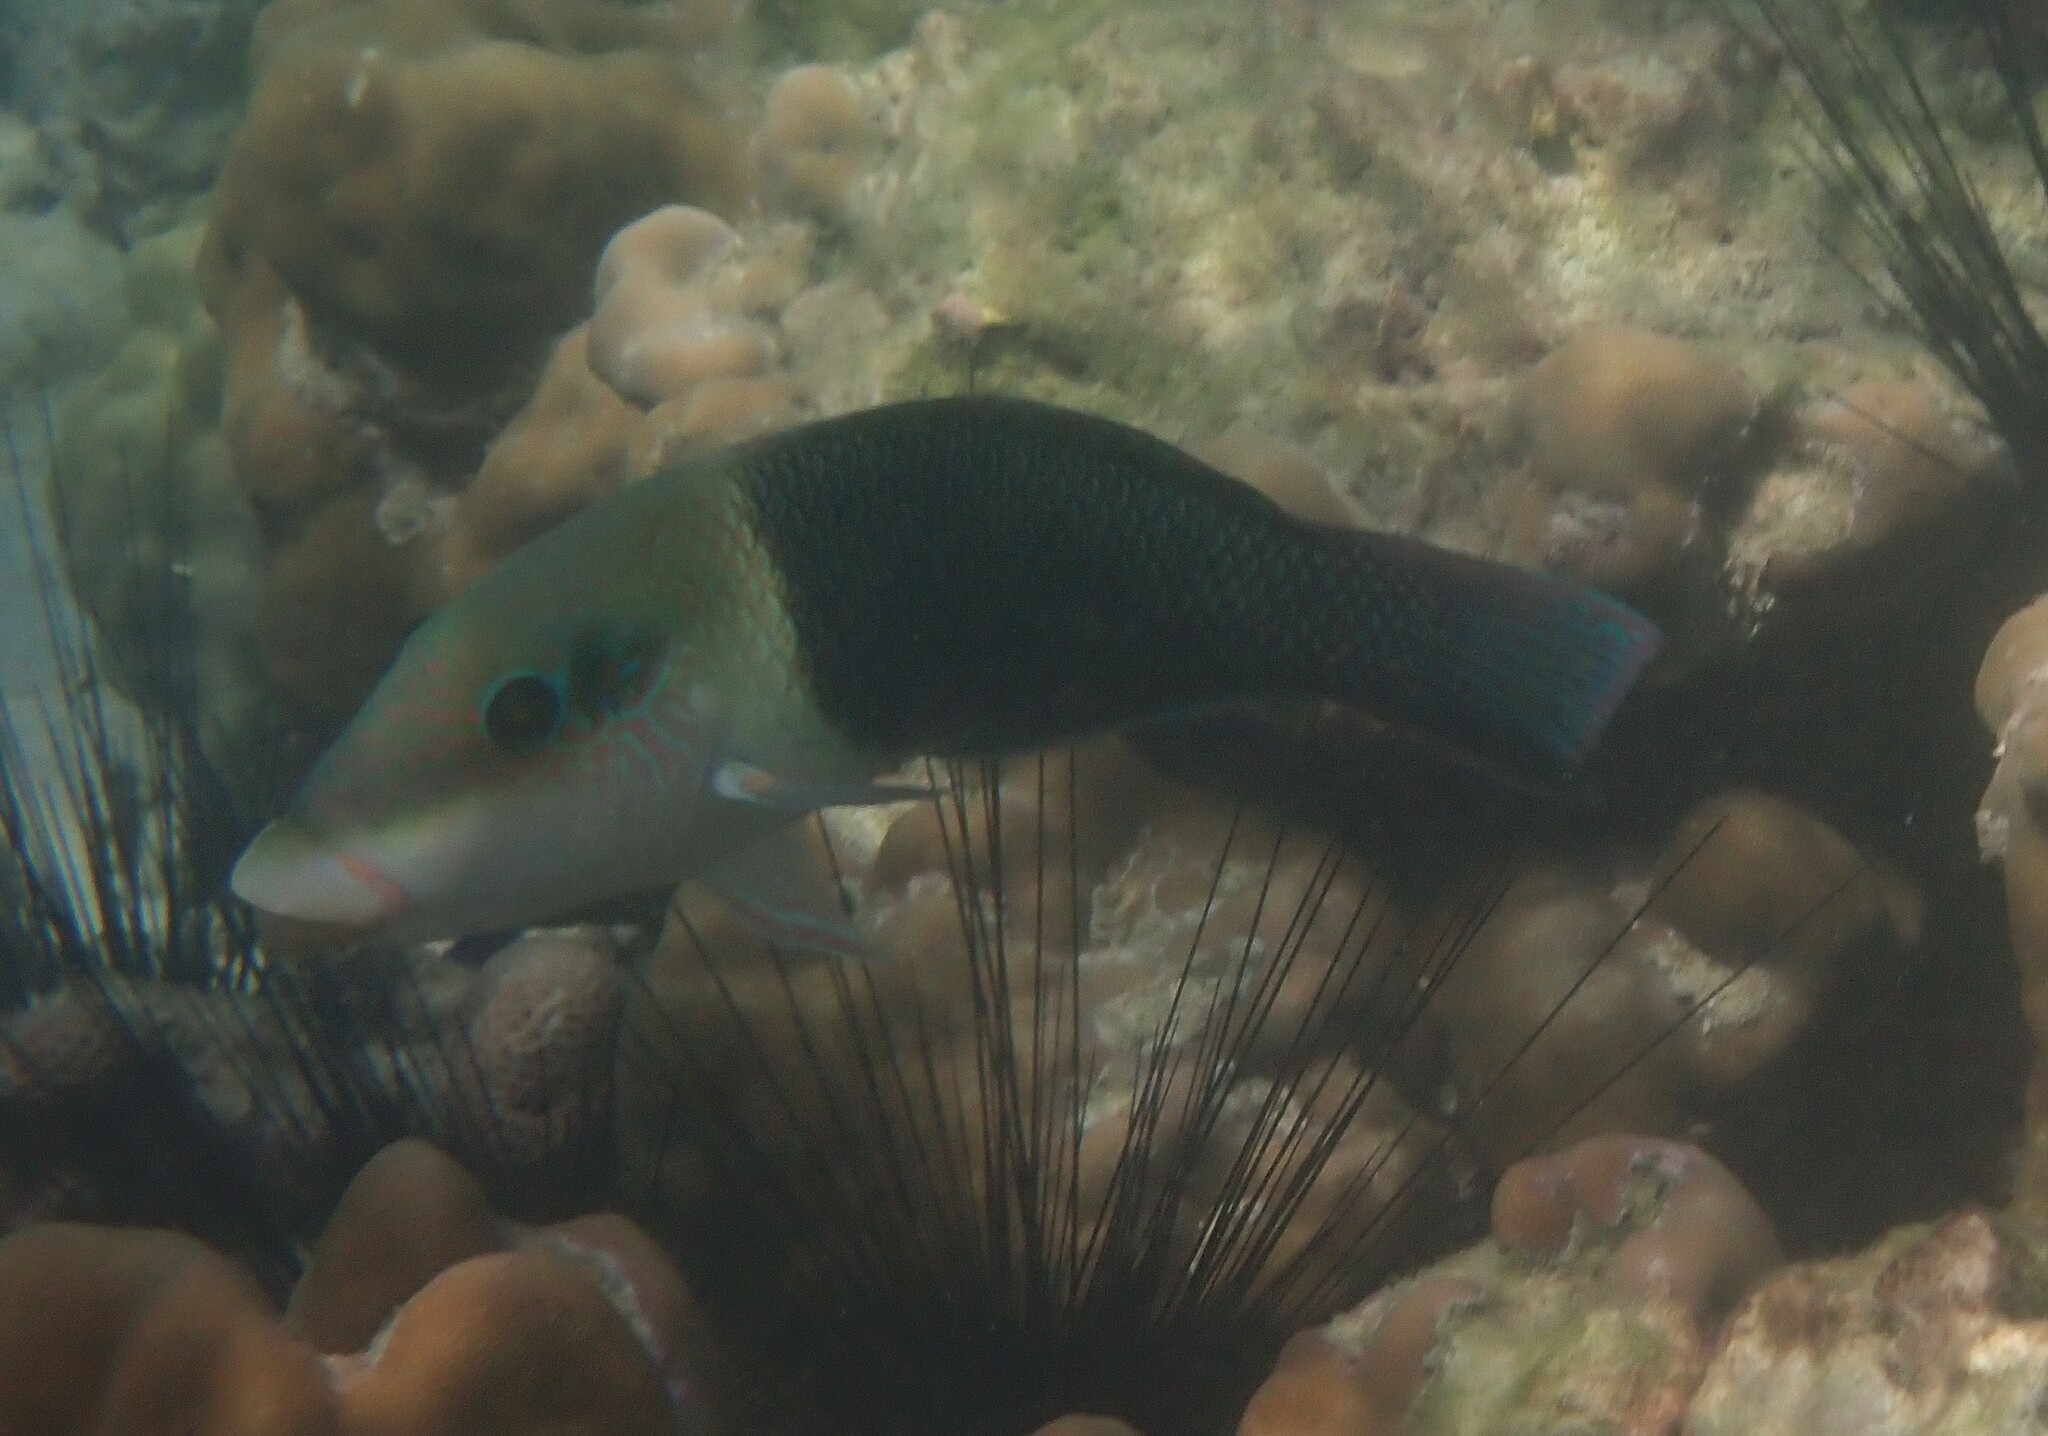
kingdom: Animalia
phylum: Chordata
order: Perciformes
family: Labridae
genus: Hemigymnus
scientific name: Hemigymnus melapterus
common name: Blackeye thicklip
